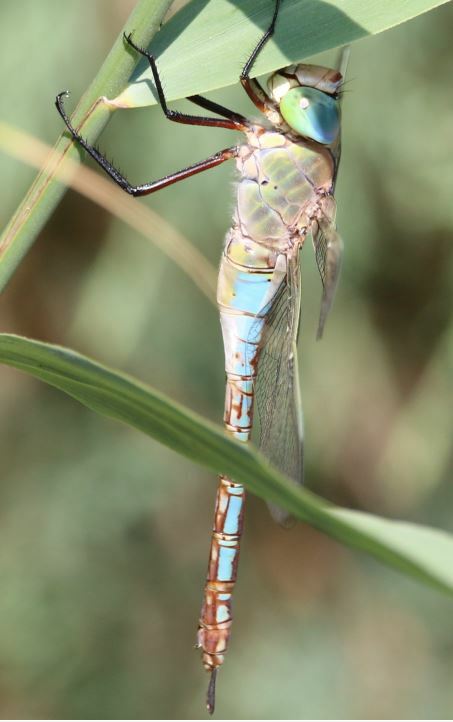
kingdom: Animalia
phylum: Arthropoda
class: Insecta
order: Odonata
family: Aeshnidae
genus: Anax
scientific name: Anax parthenope
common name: Lesser emperor
